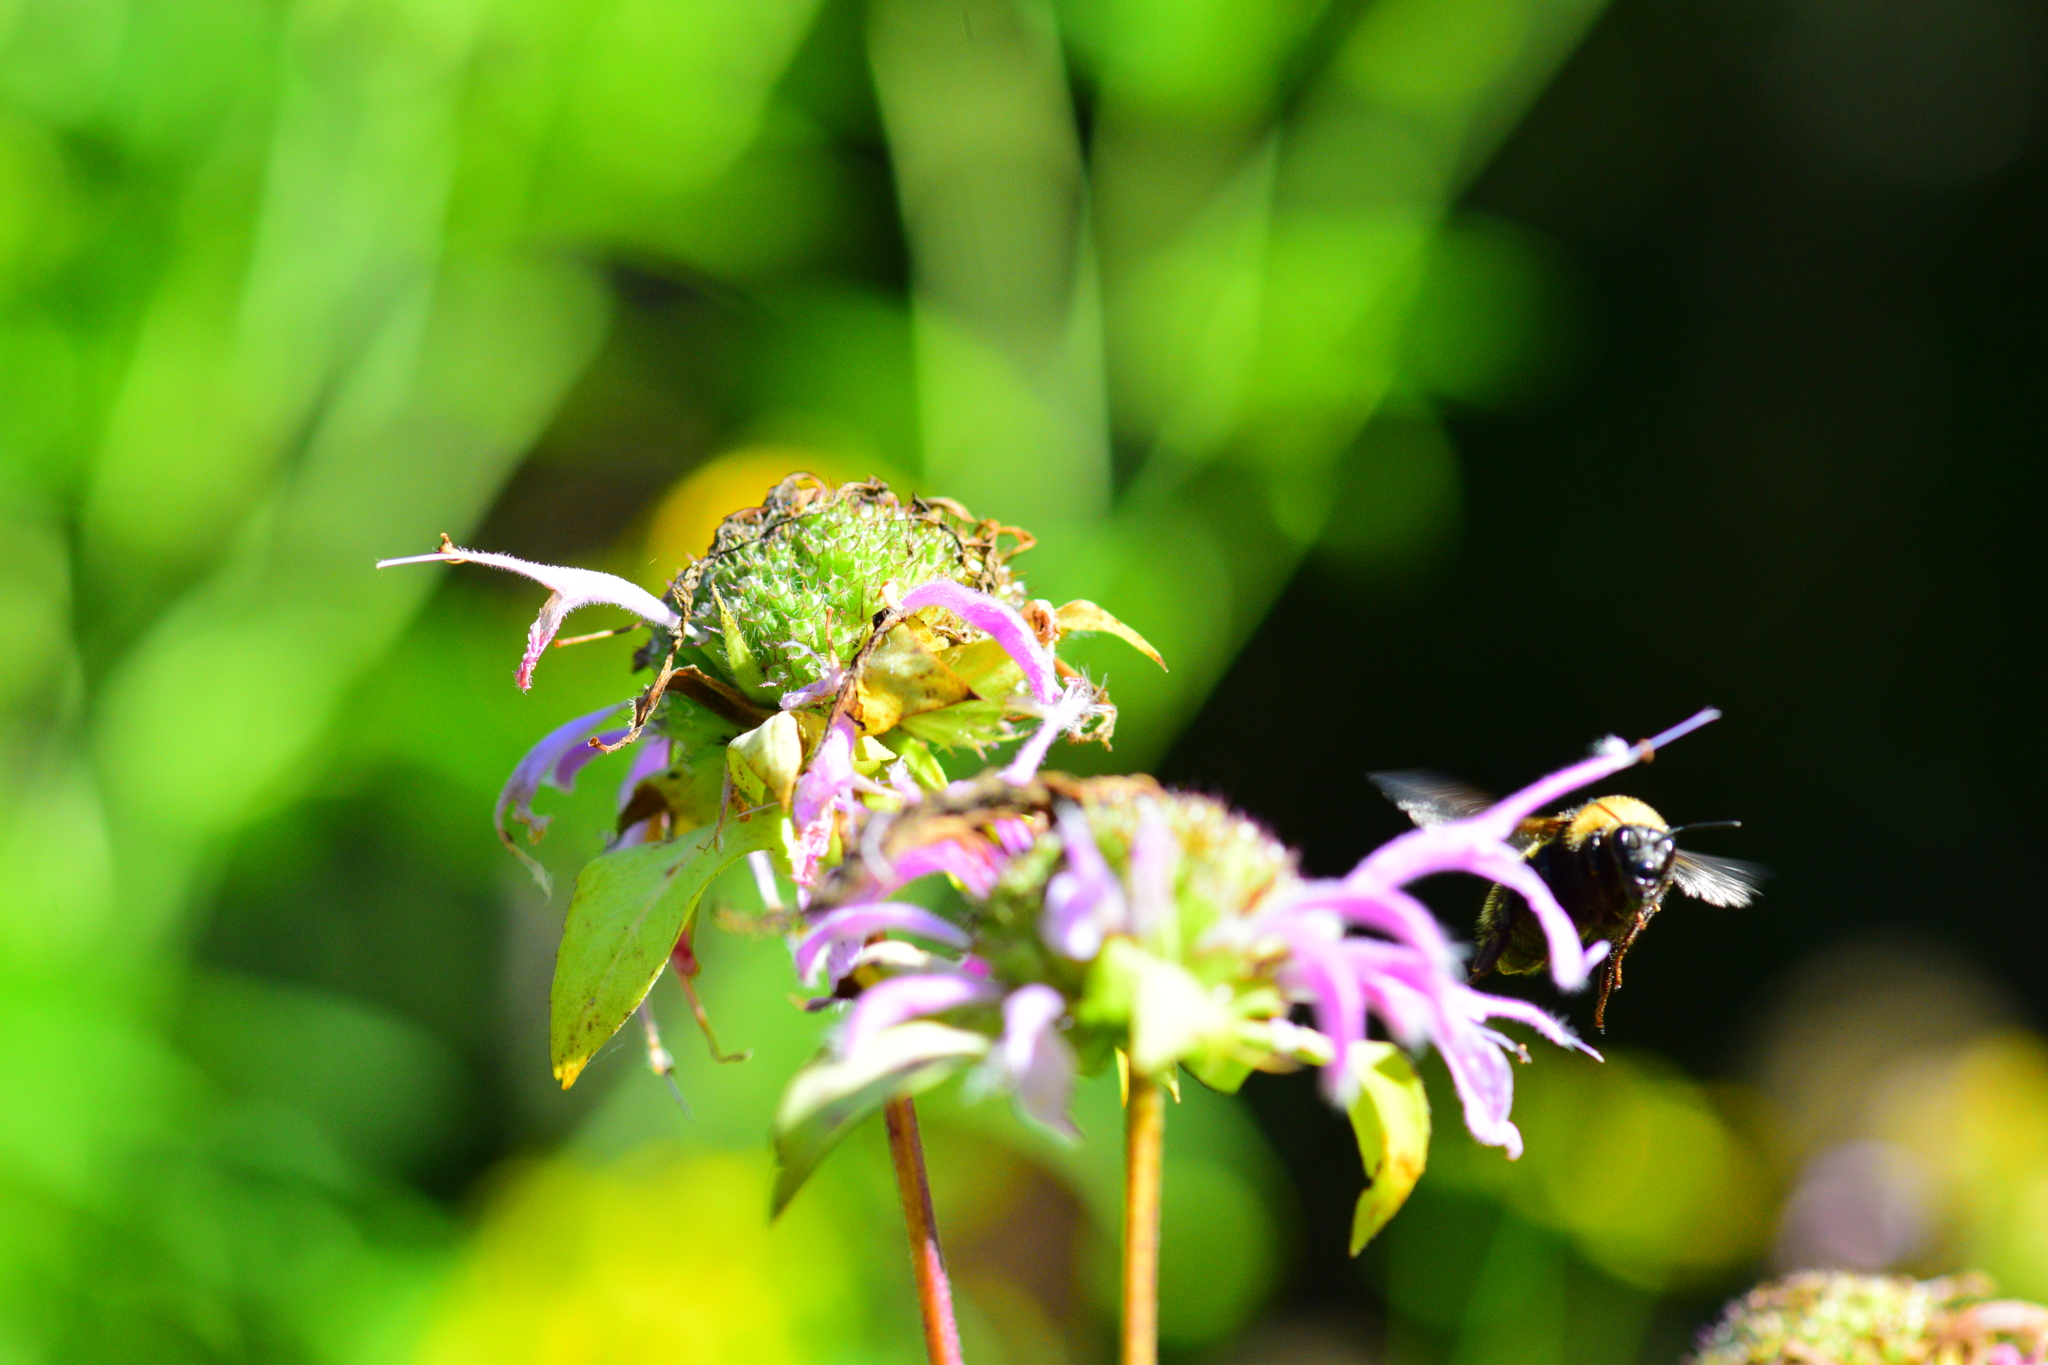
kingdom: Animalia
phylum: Arthropoda
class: Insecta
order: Hymenoptera
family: Apidae
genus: Bombus
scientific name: Bombus borealis
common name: Northern amber bumble bee
